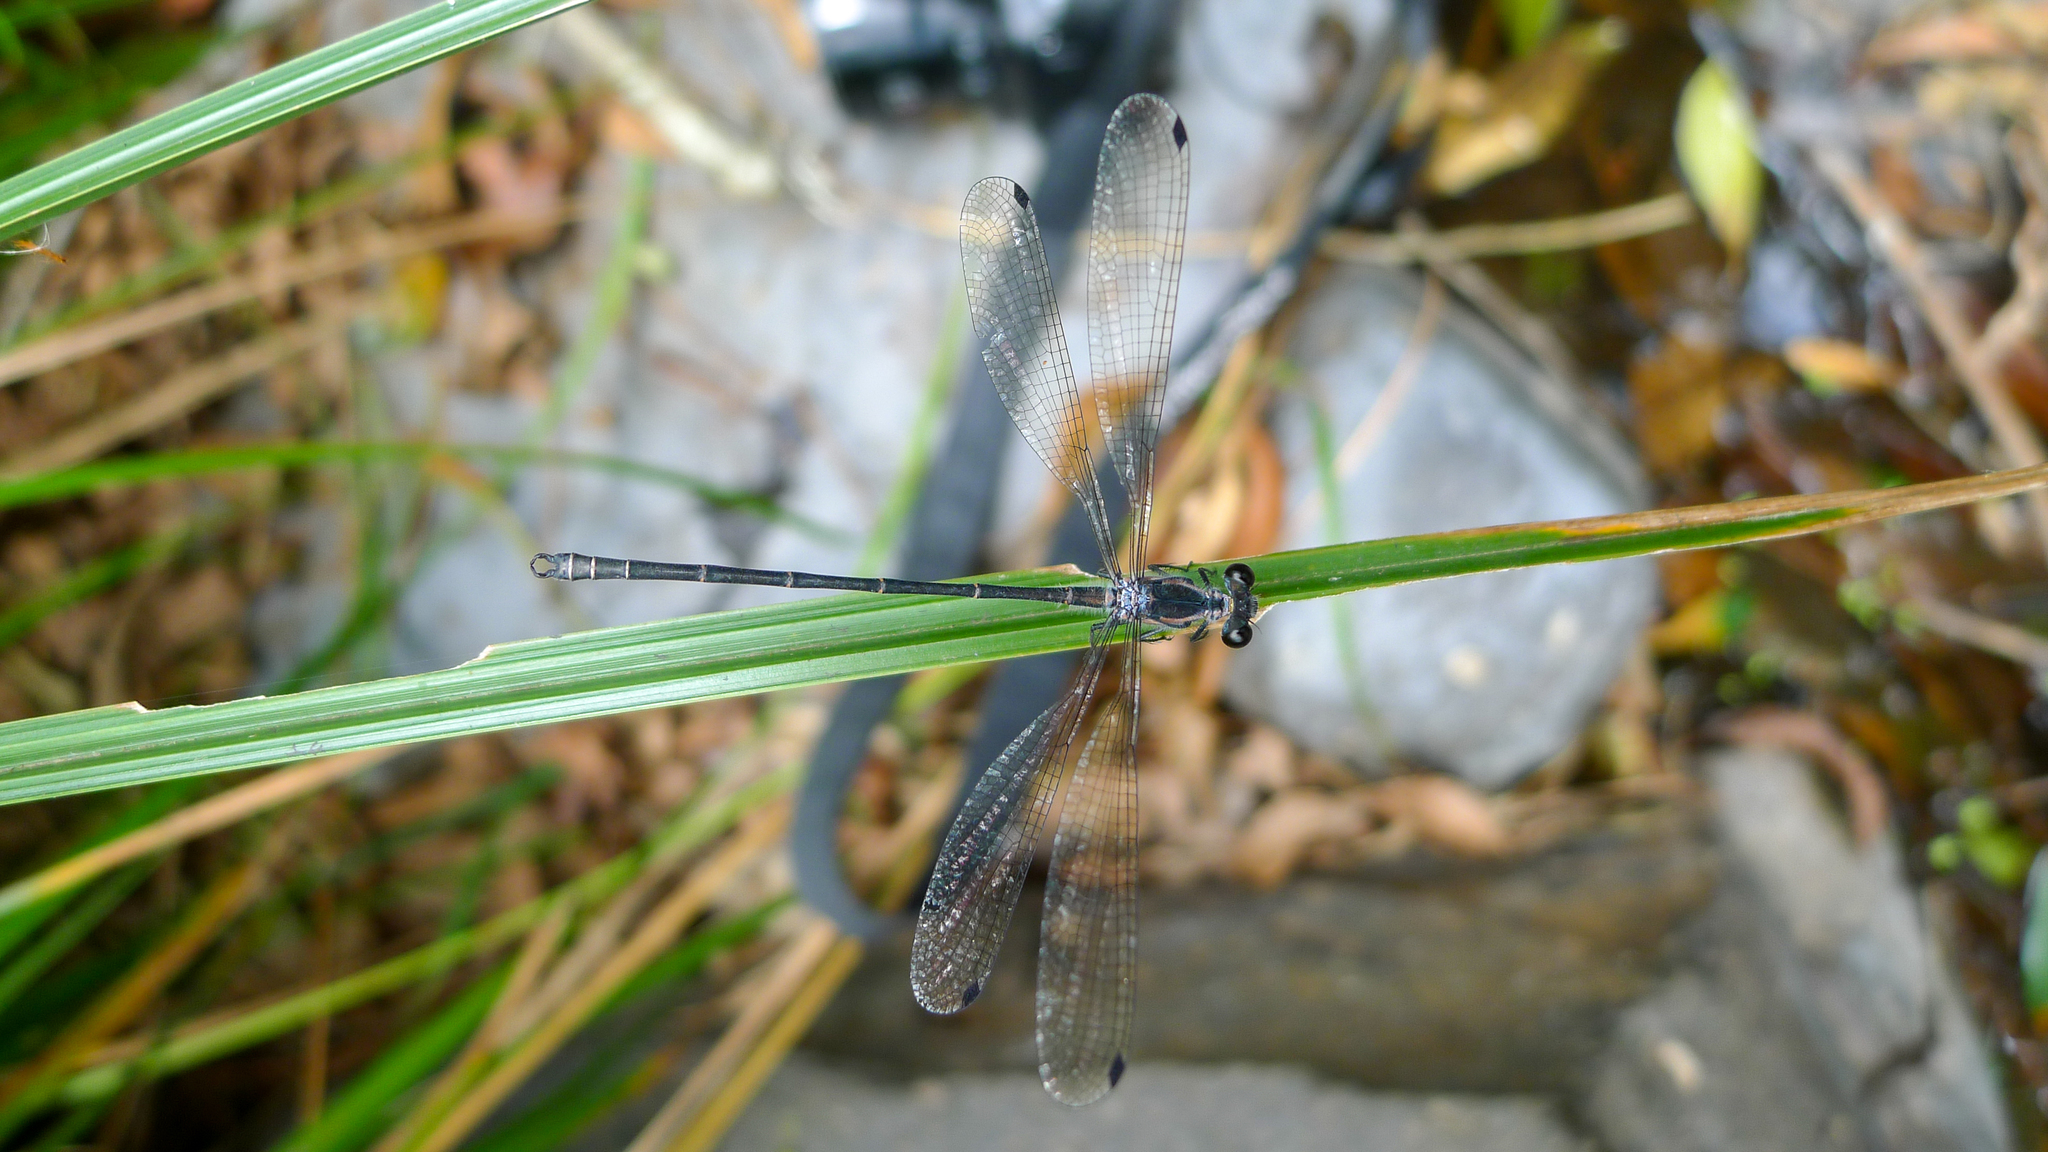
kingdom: Animalia
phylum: Arthropoda
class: Insecta
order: Odonata
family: Argiolestidae
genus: Austroargiolestes
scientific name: Austroargiolestes icteromelas
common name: Common flatwing
